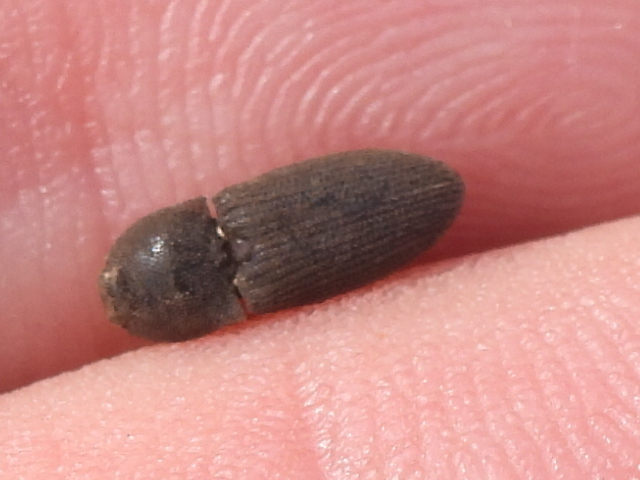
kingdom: Animalia
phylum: Arthropoda
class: Insecta
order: Coleoptera
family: Elateridae
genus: Agrypnus
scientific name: Agrypnus rectangularis
